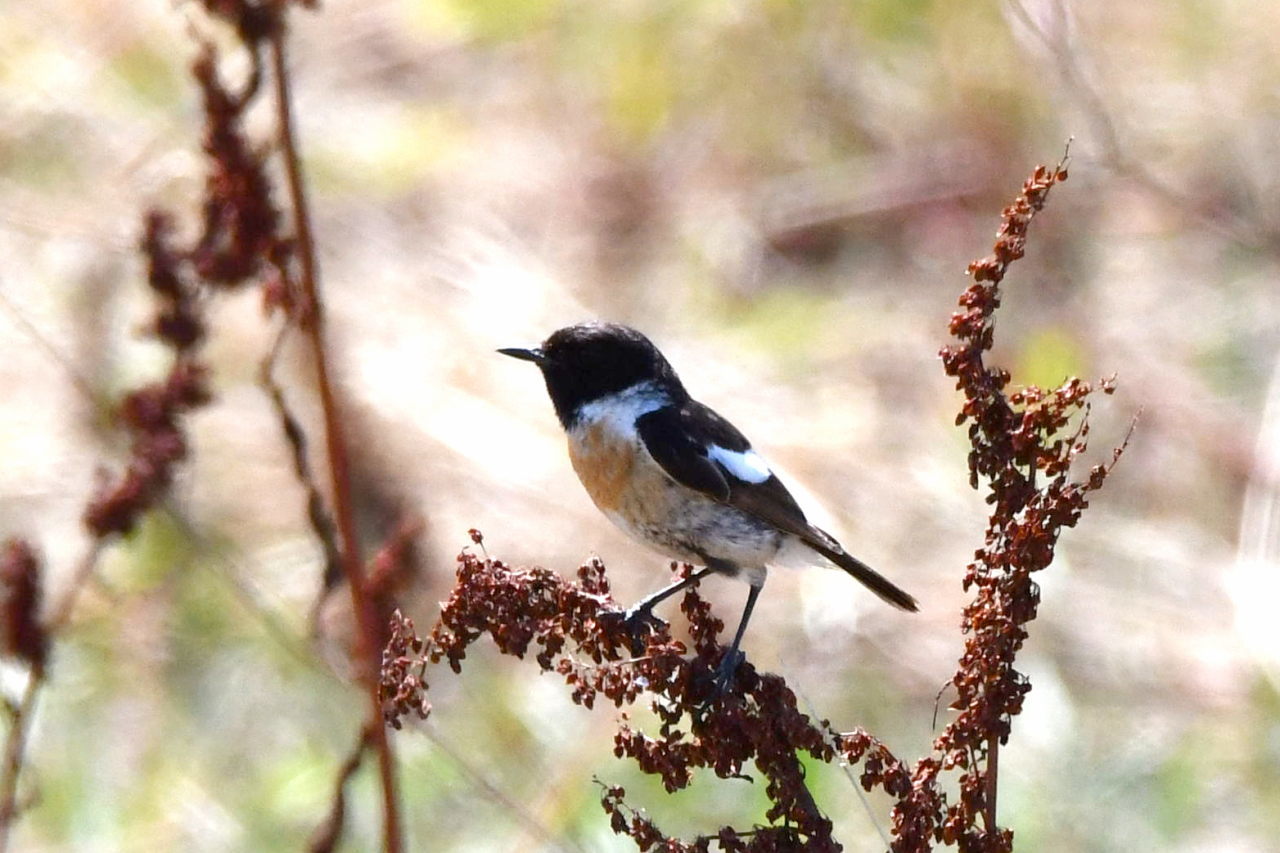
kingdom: Animalia
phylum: Chordata
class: Aves
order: Passeriformes
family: Muscicapidae
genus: Saxicola
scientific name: Saxicola rubicola
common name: European stonechat
